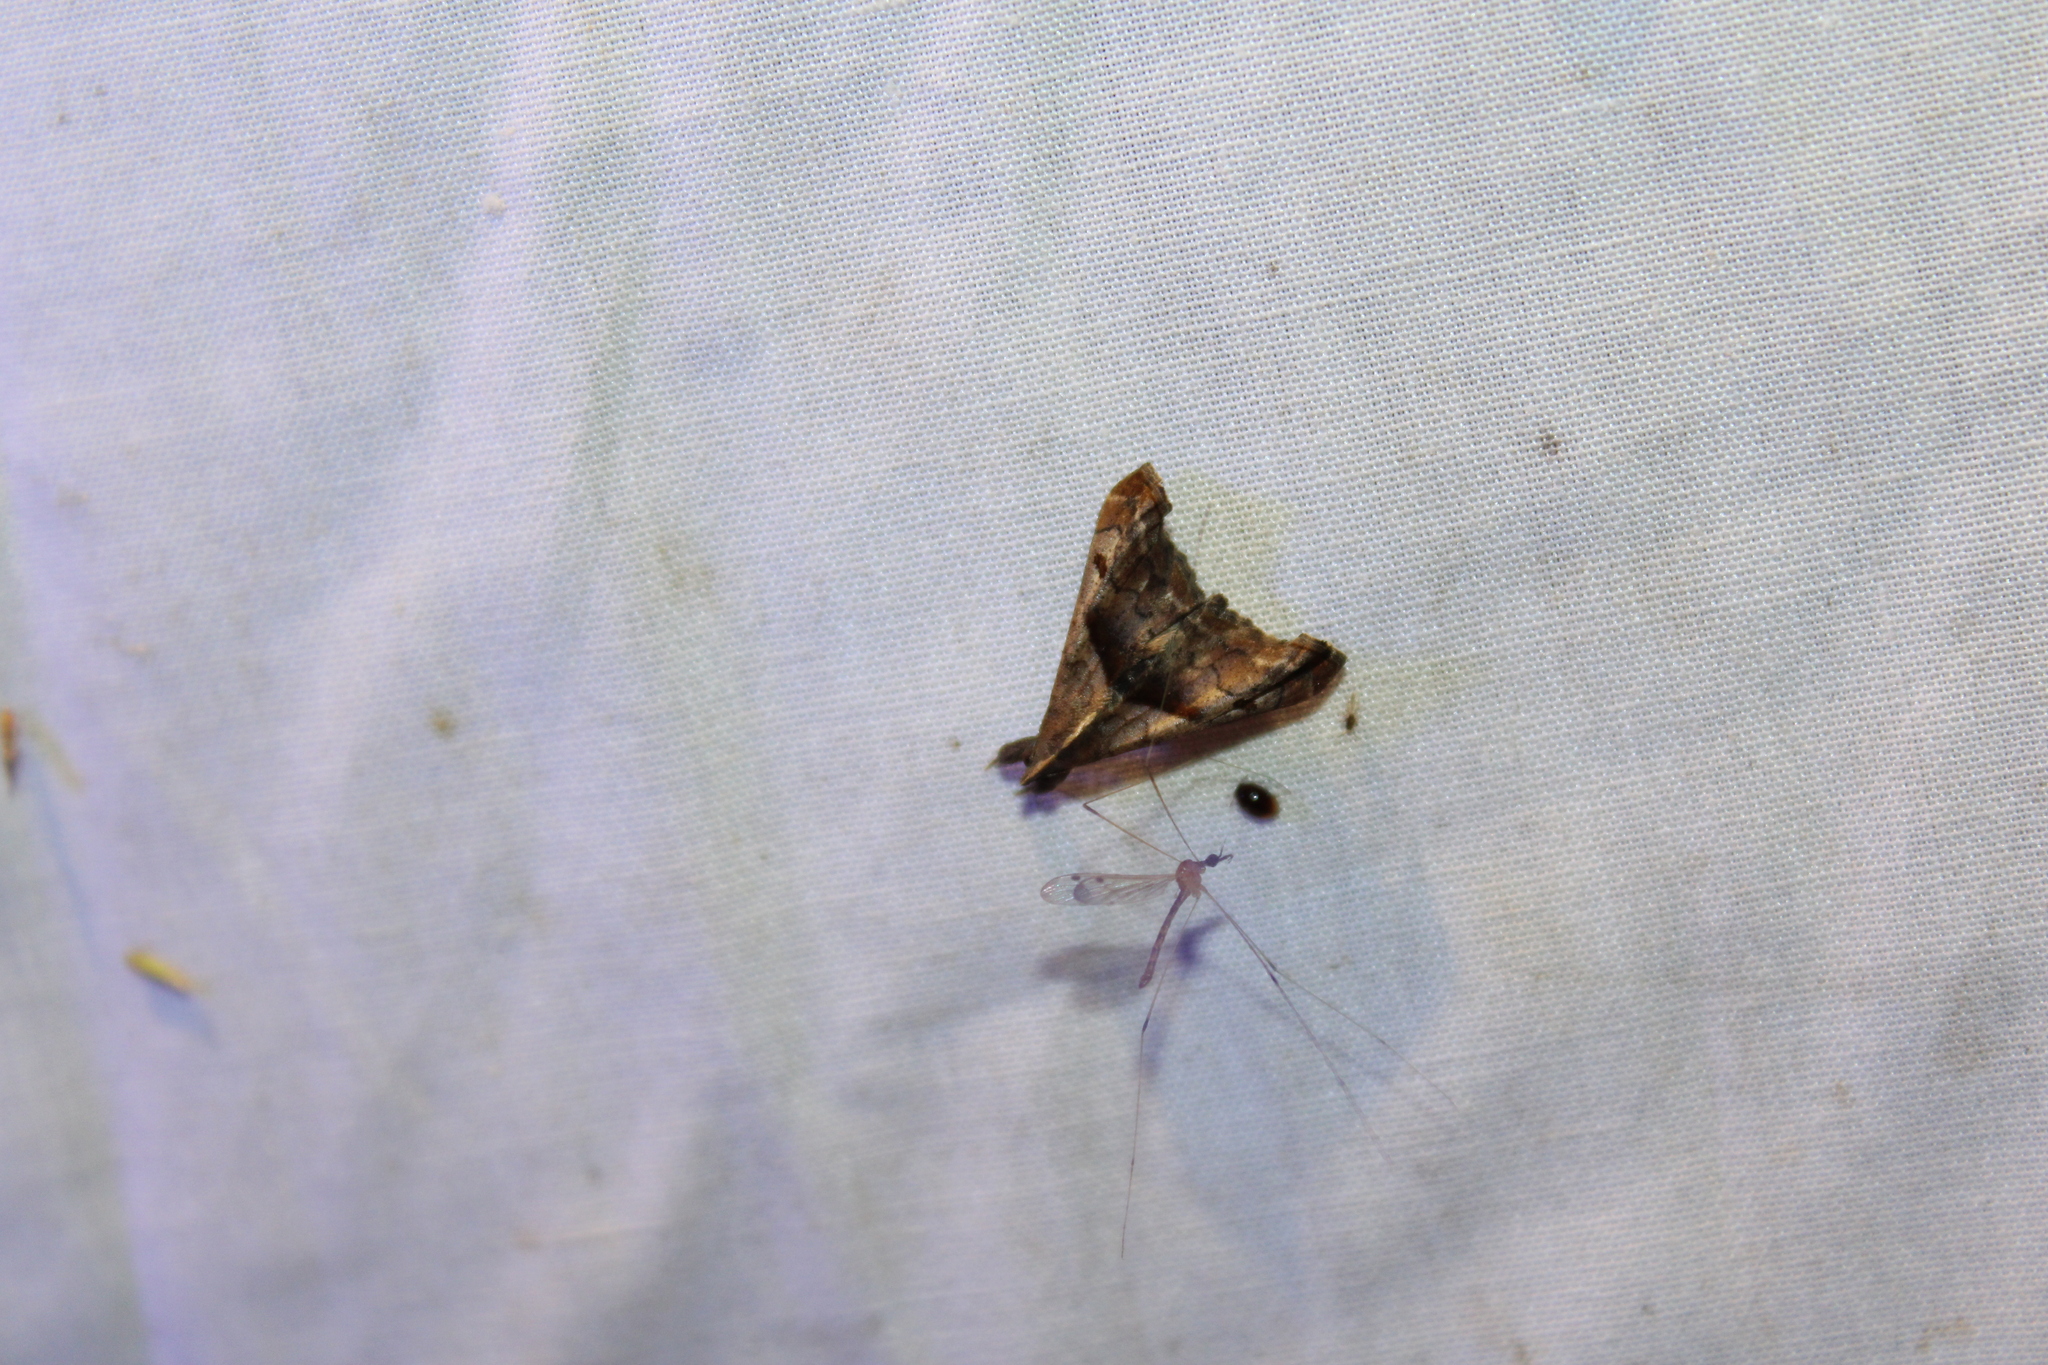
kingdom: Animalia
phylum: Arthropoda
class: Insecta
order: Lepidoptera
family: Erebidae
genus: Palthis
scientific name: Palthis angulalis
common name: Dark-spotted palthis moth
